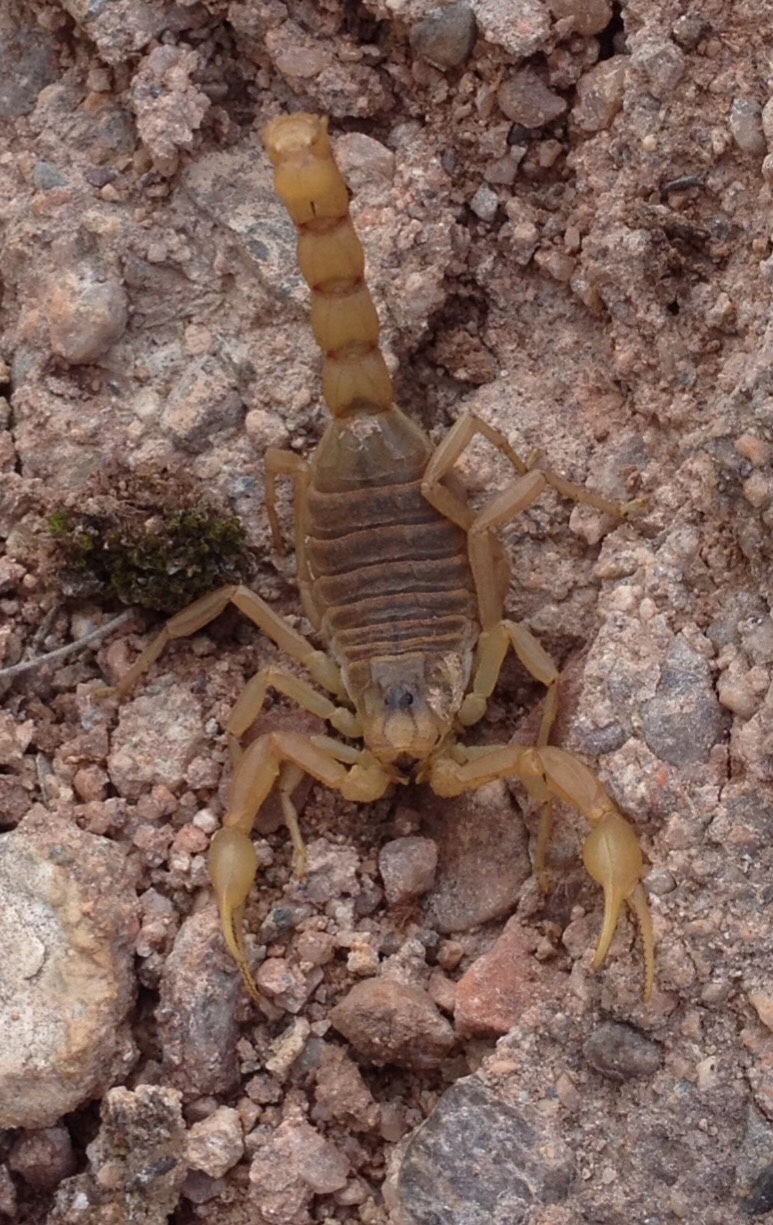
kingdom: Animalia
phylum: Arthropoda
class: Arachnida
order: Scorpiones
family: Buthidae
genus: Buthus
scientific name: Buthus occitanus
